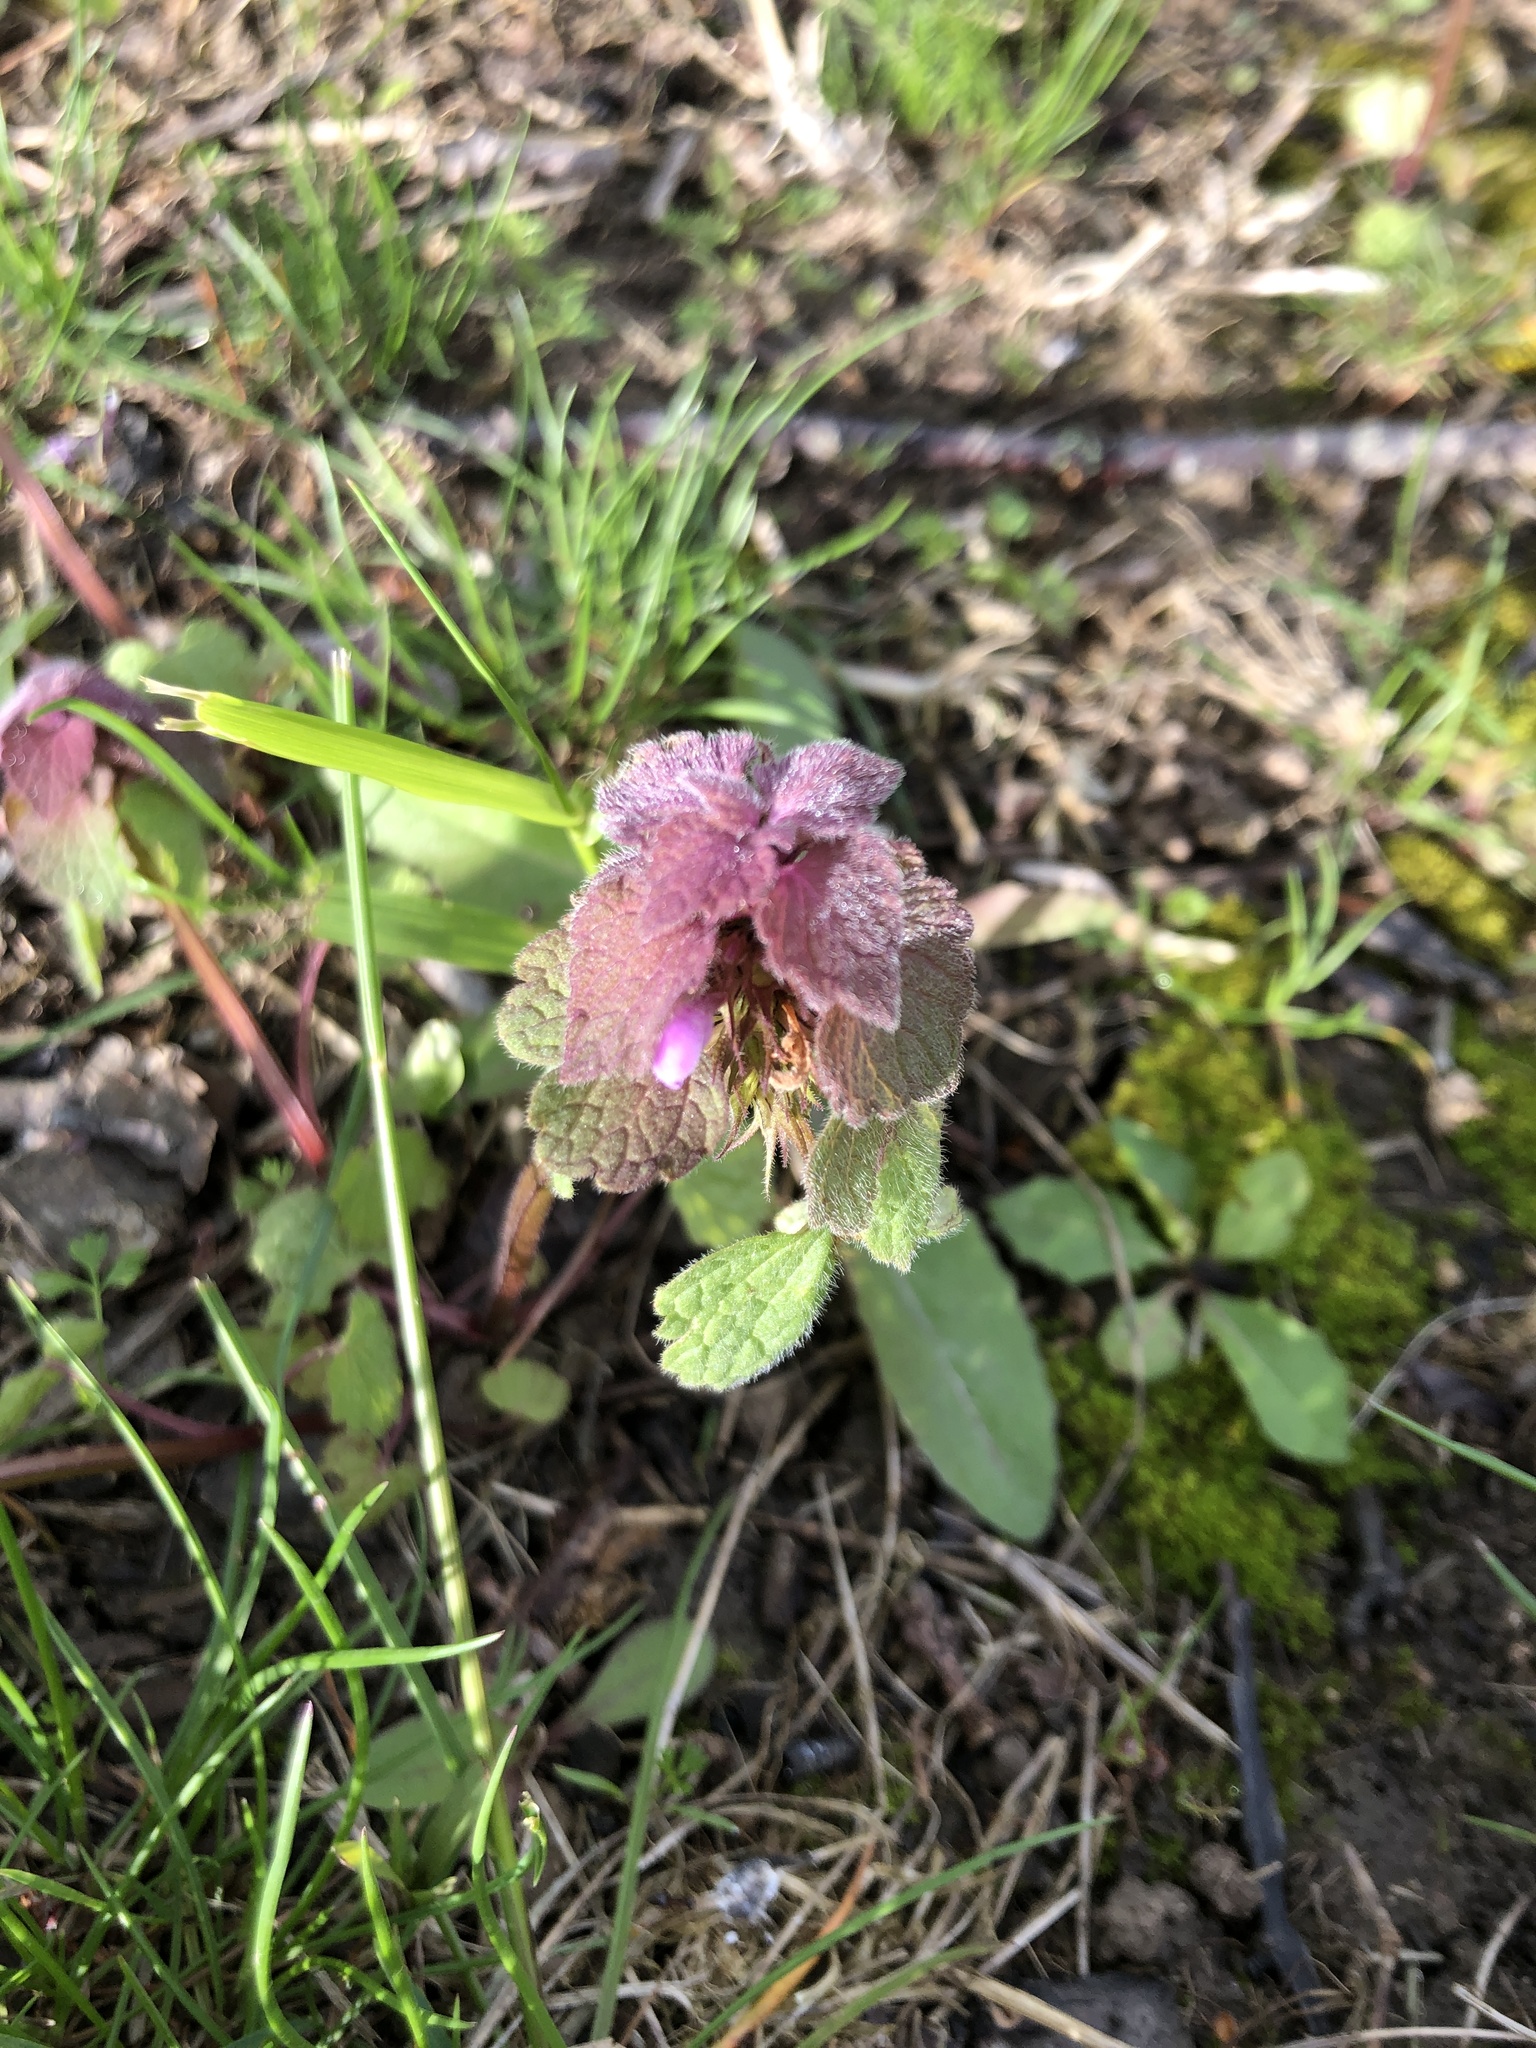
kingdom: Plantae
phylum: Tracheophyta
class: Magnoliopsida
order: Lamiales
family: Lamiaceae
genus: Lamium
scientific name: Lamium purpureum
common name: Red dead-nettle
